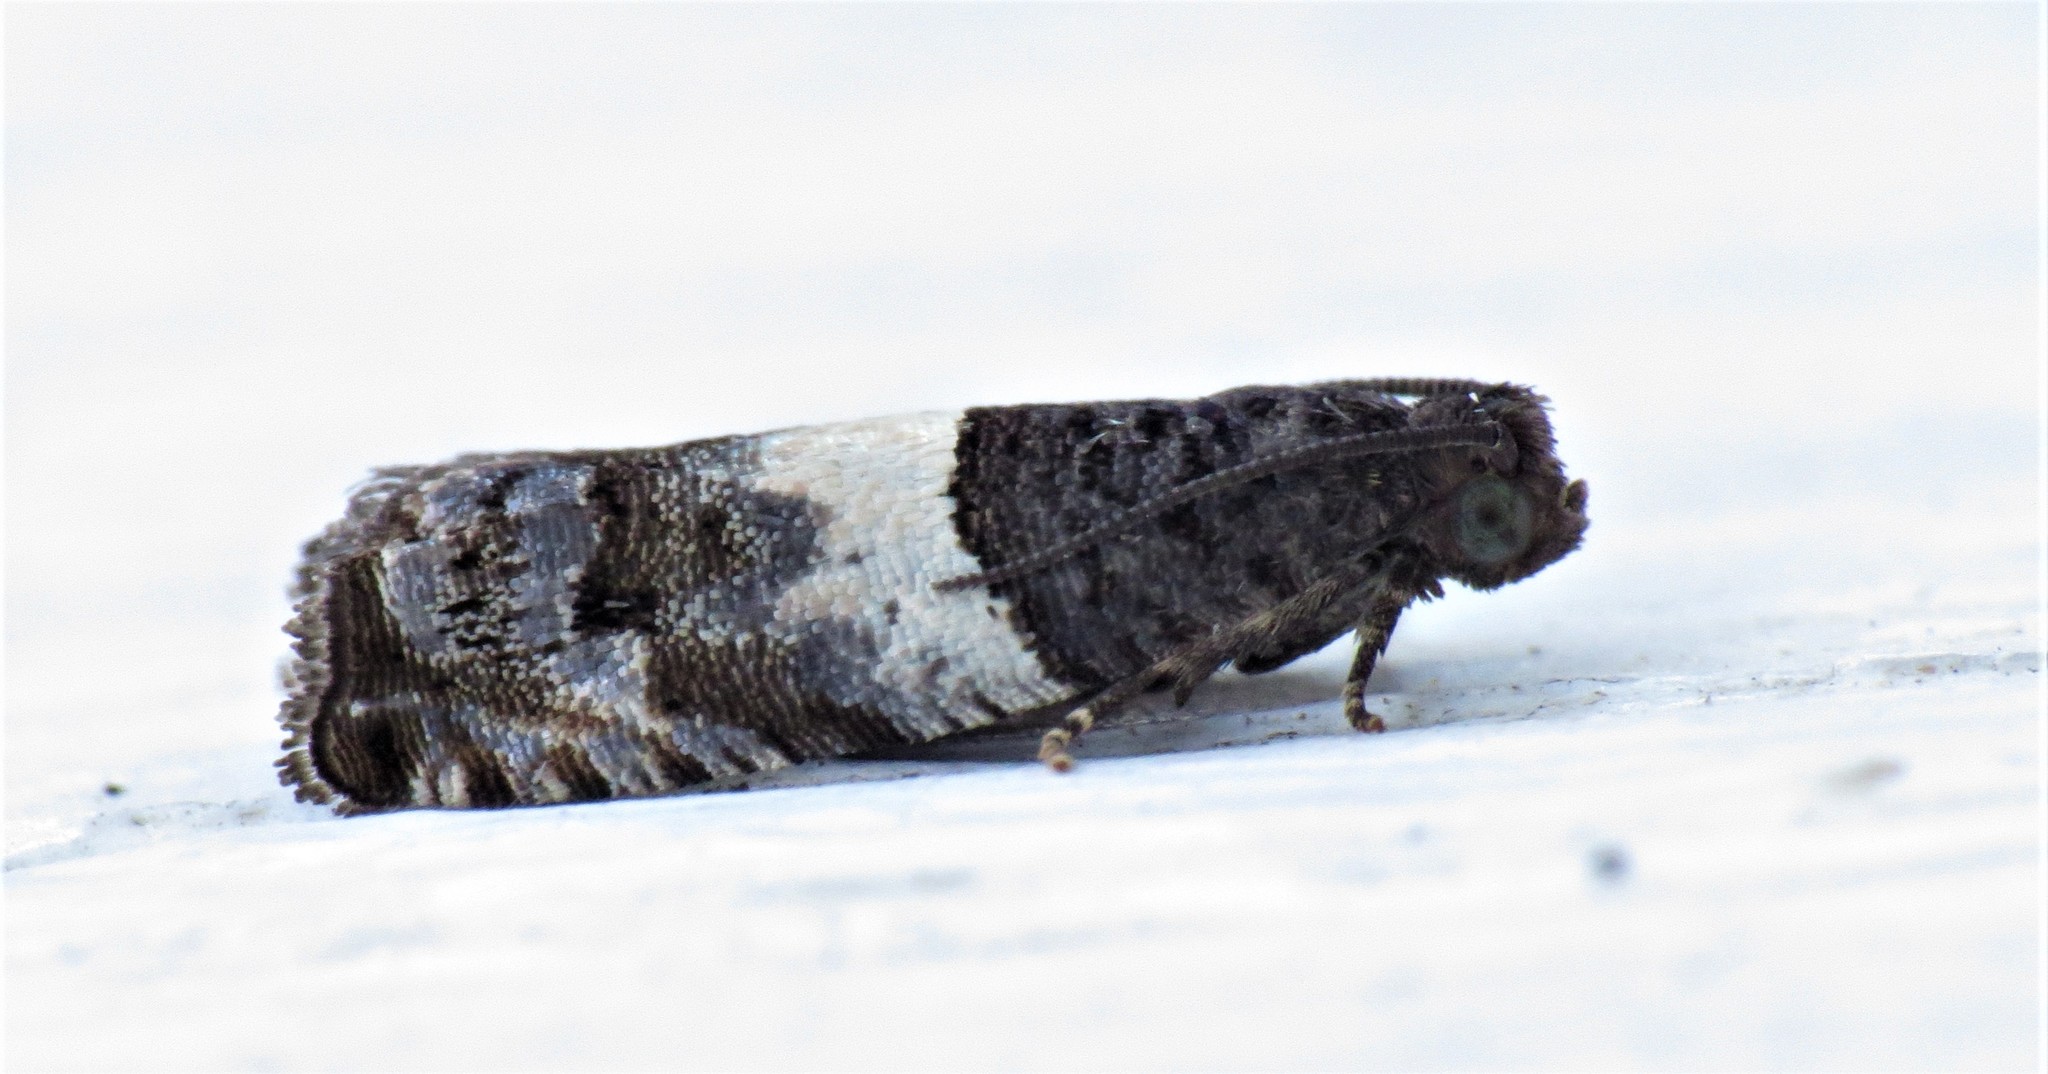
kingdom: Animalia
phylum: Arthropoda
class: Insecta
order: Lepidoptera
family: Tortricidae
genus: Gypsonoma
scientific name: Gypsonoma substitutionis
